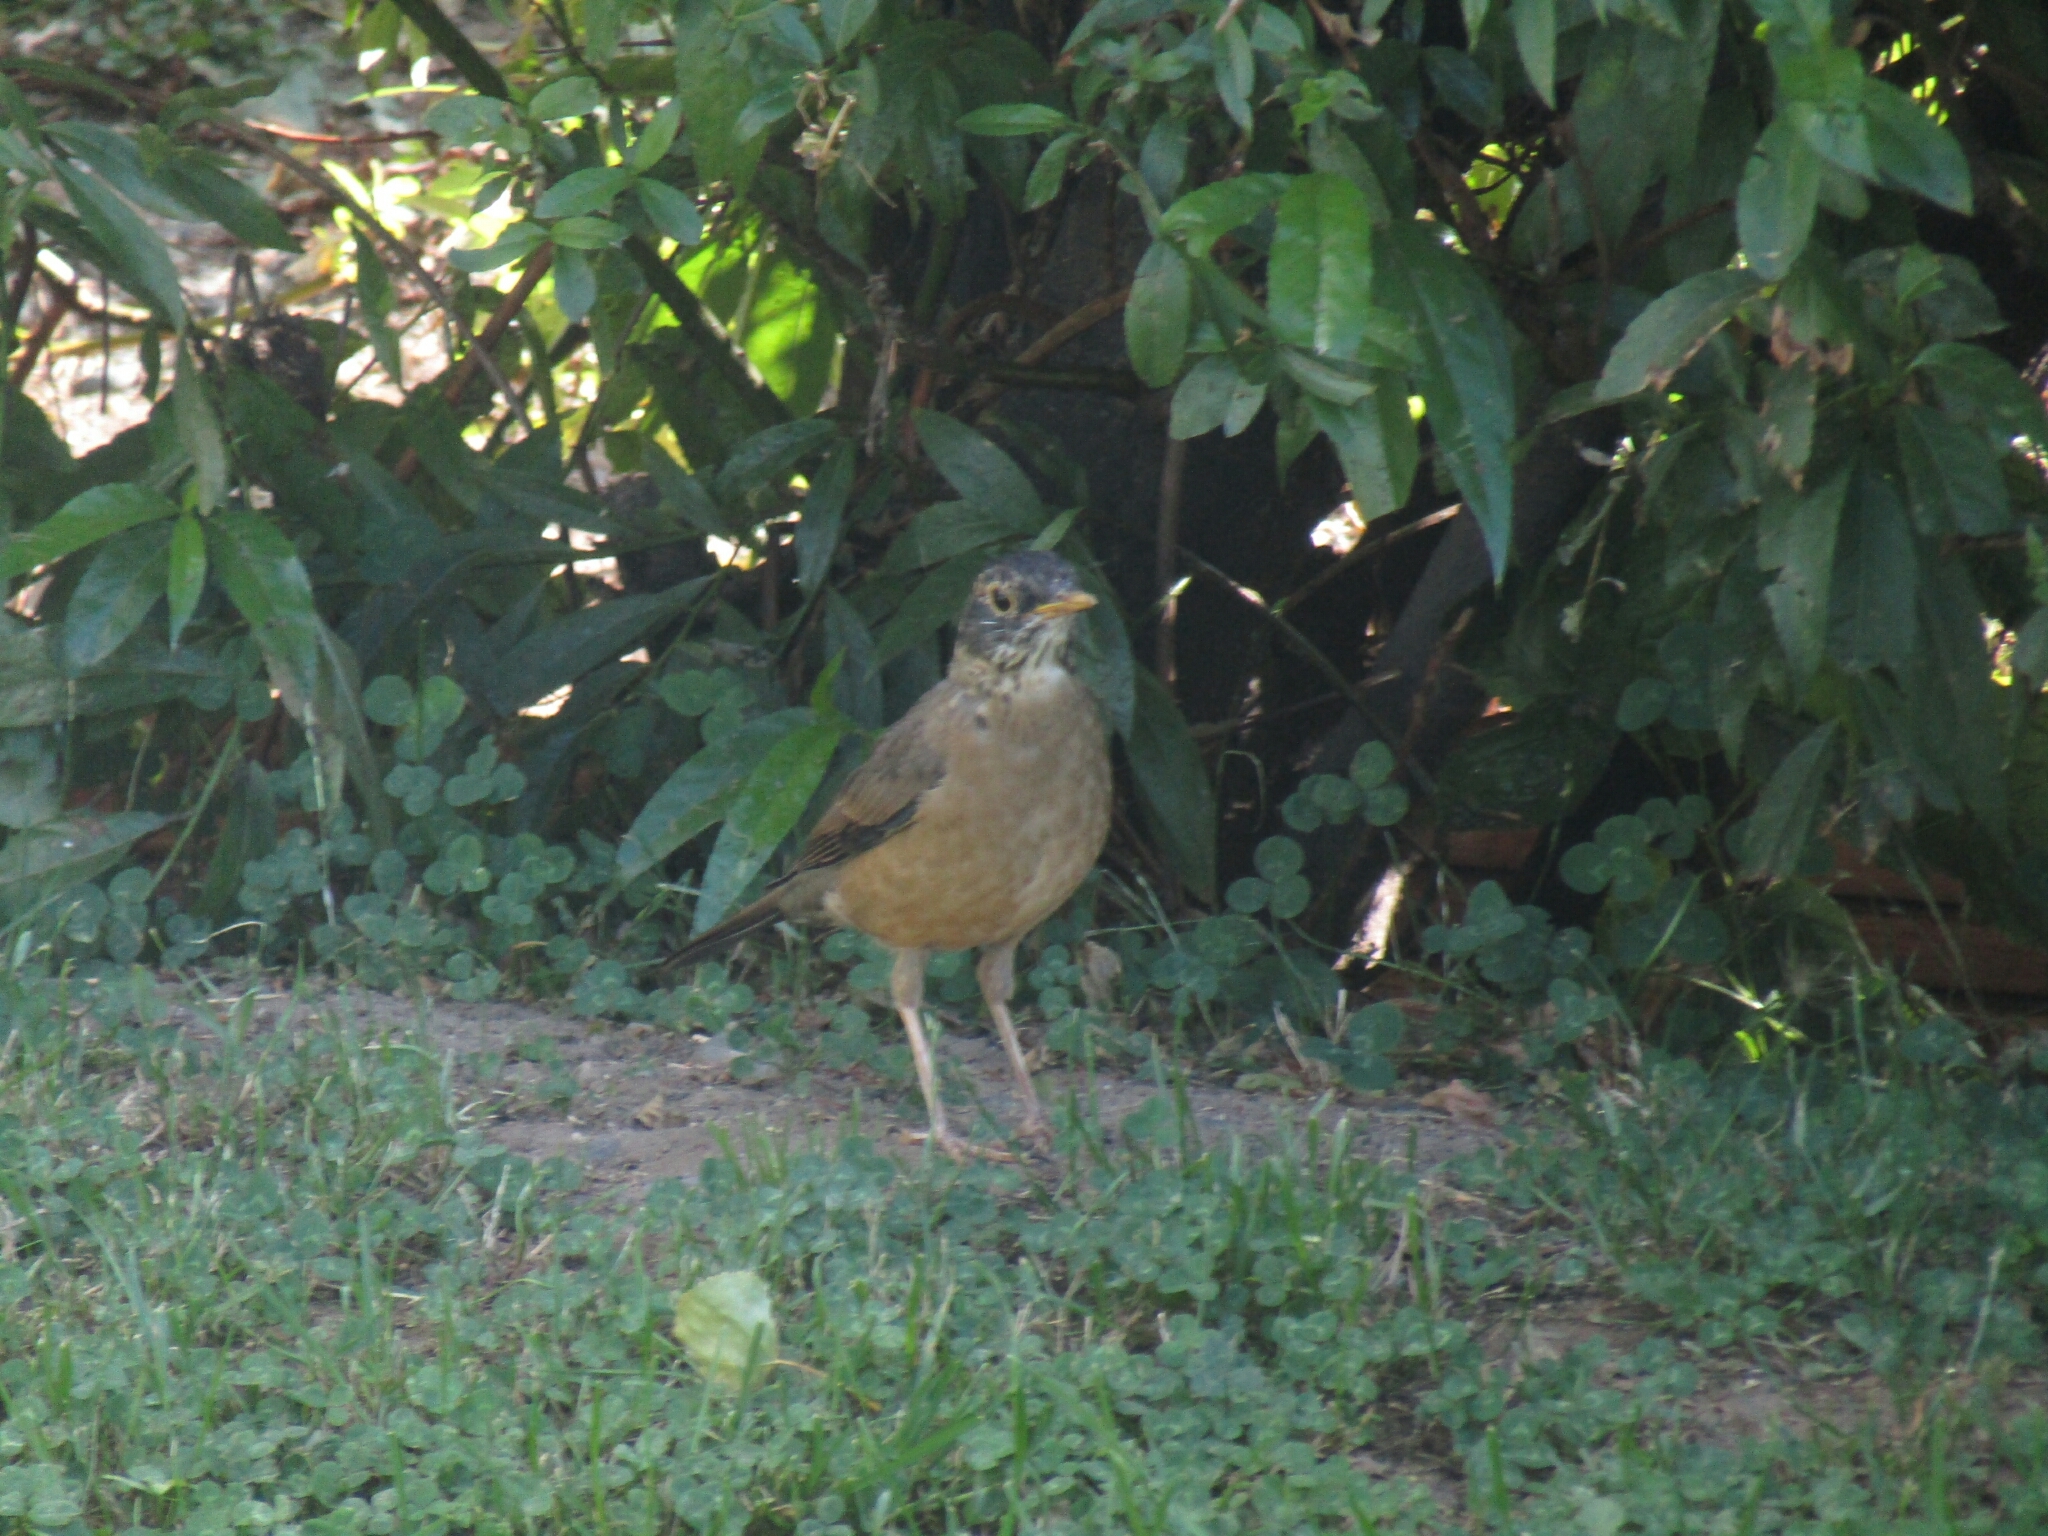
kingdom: Animalia
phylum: Chordata
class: Aves
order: Passeriformes
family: Turdidae
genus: Turdus
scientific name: Turdus falcklandii
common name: Austral thrush
